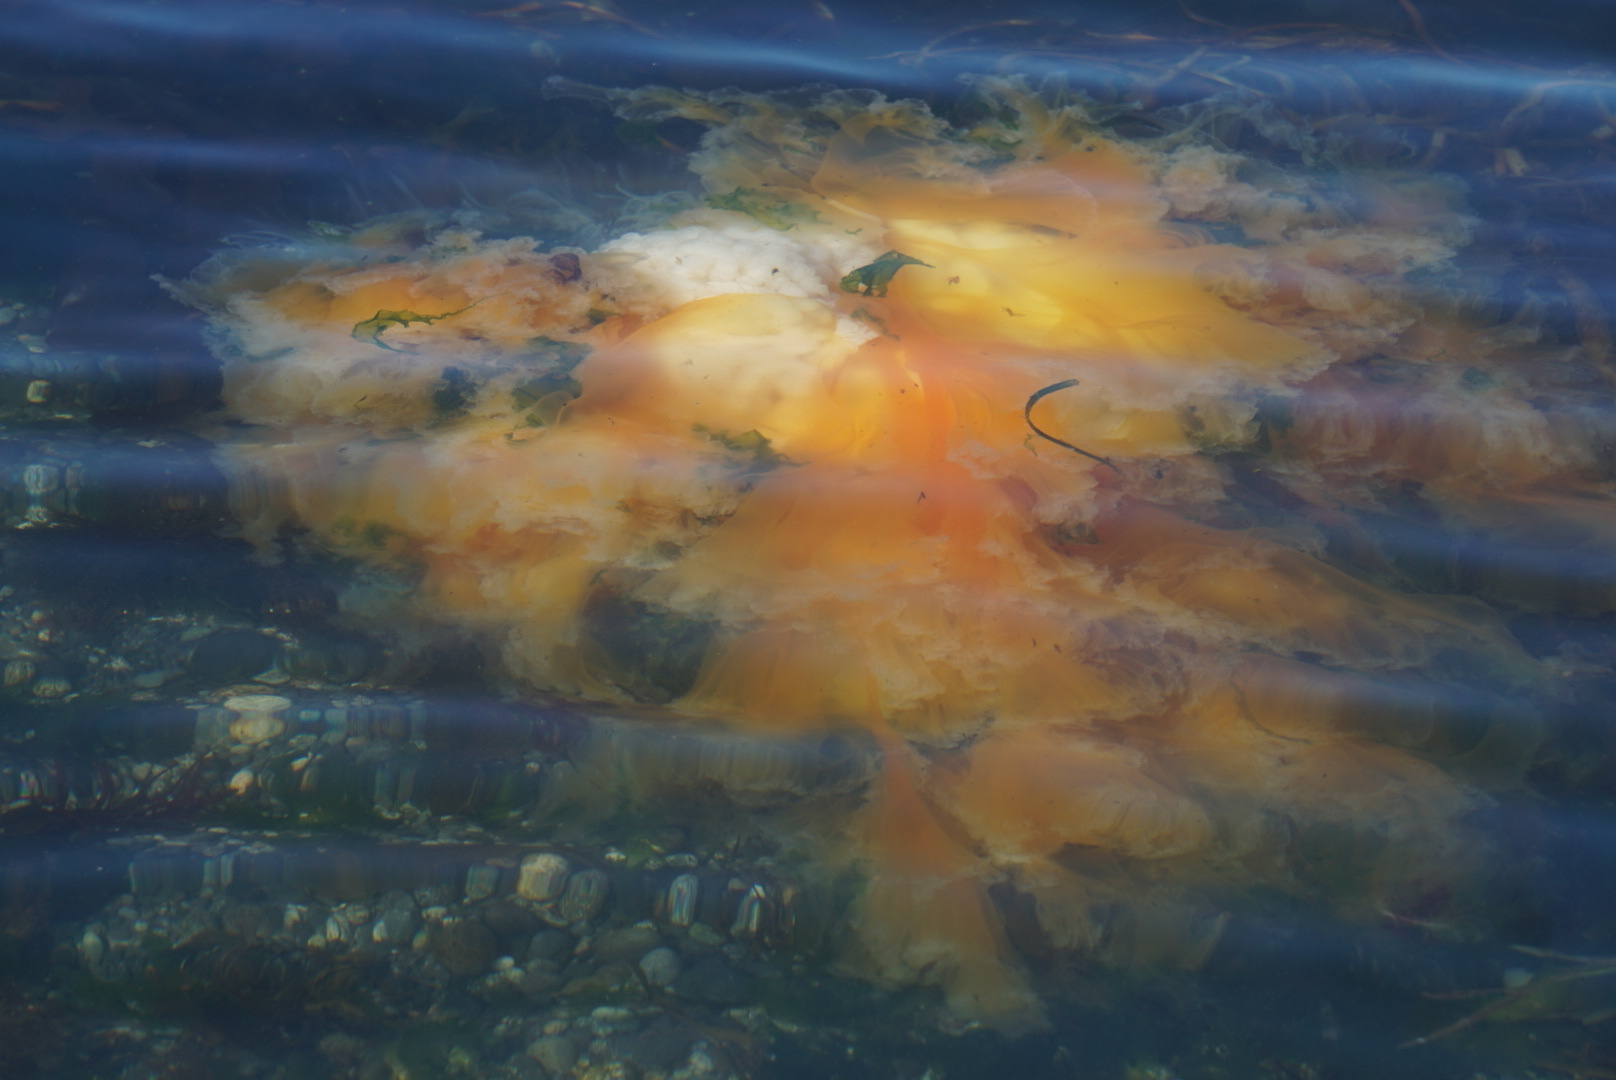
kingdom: Animalia
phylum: Cnidaria
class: Scyphozoa
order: Semaeostomeae
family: Phacellophoridae
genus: Phacellophora
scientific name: Phacellophora camtschatica
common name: Fried-egg jellyfish
